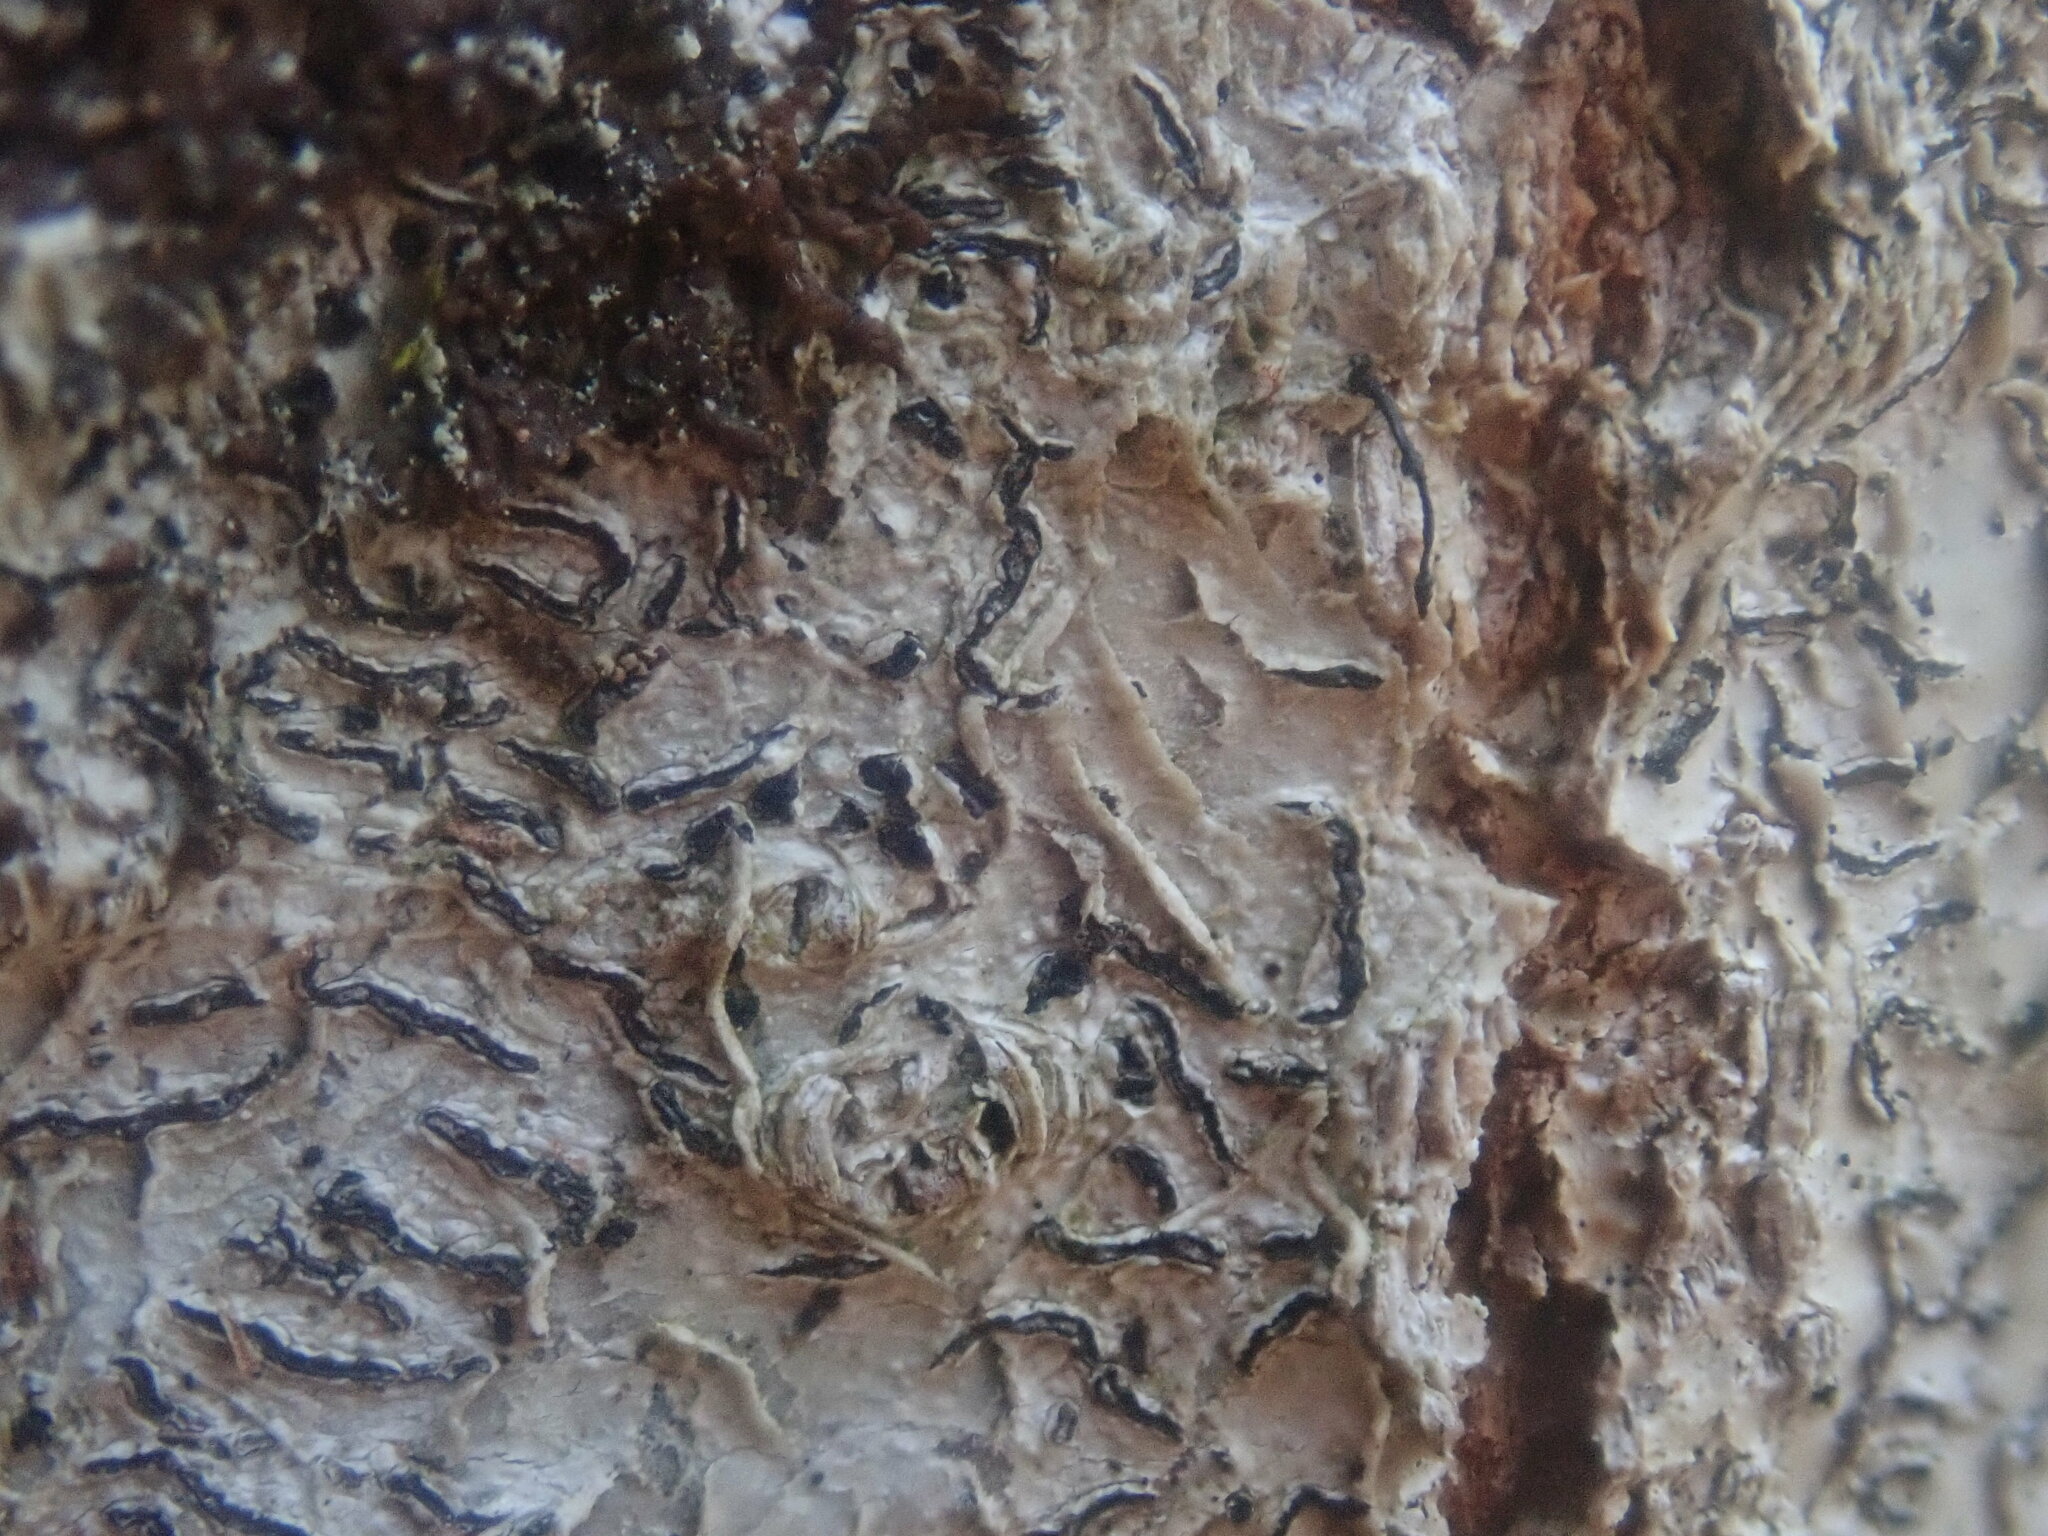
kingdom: Fungi
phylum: Ascomycota
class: Lecanoromycetes
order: Ostropales
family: Graphidaceae
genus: Graphis
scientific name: Graphis scripta
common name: Script lichen
